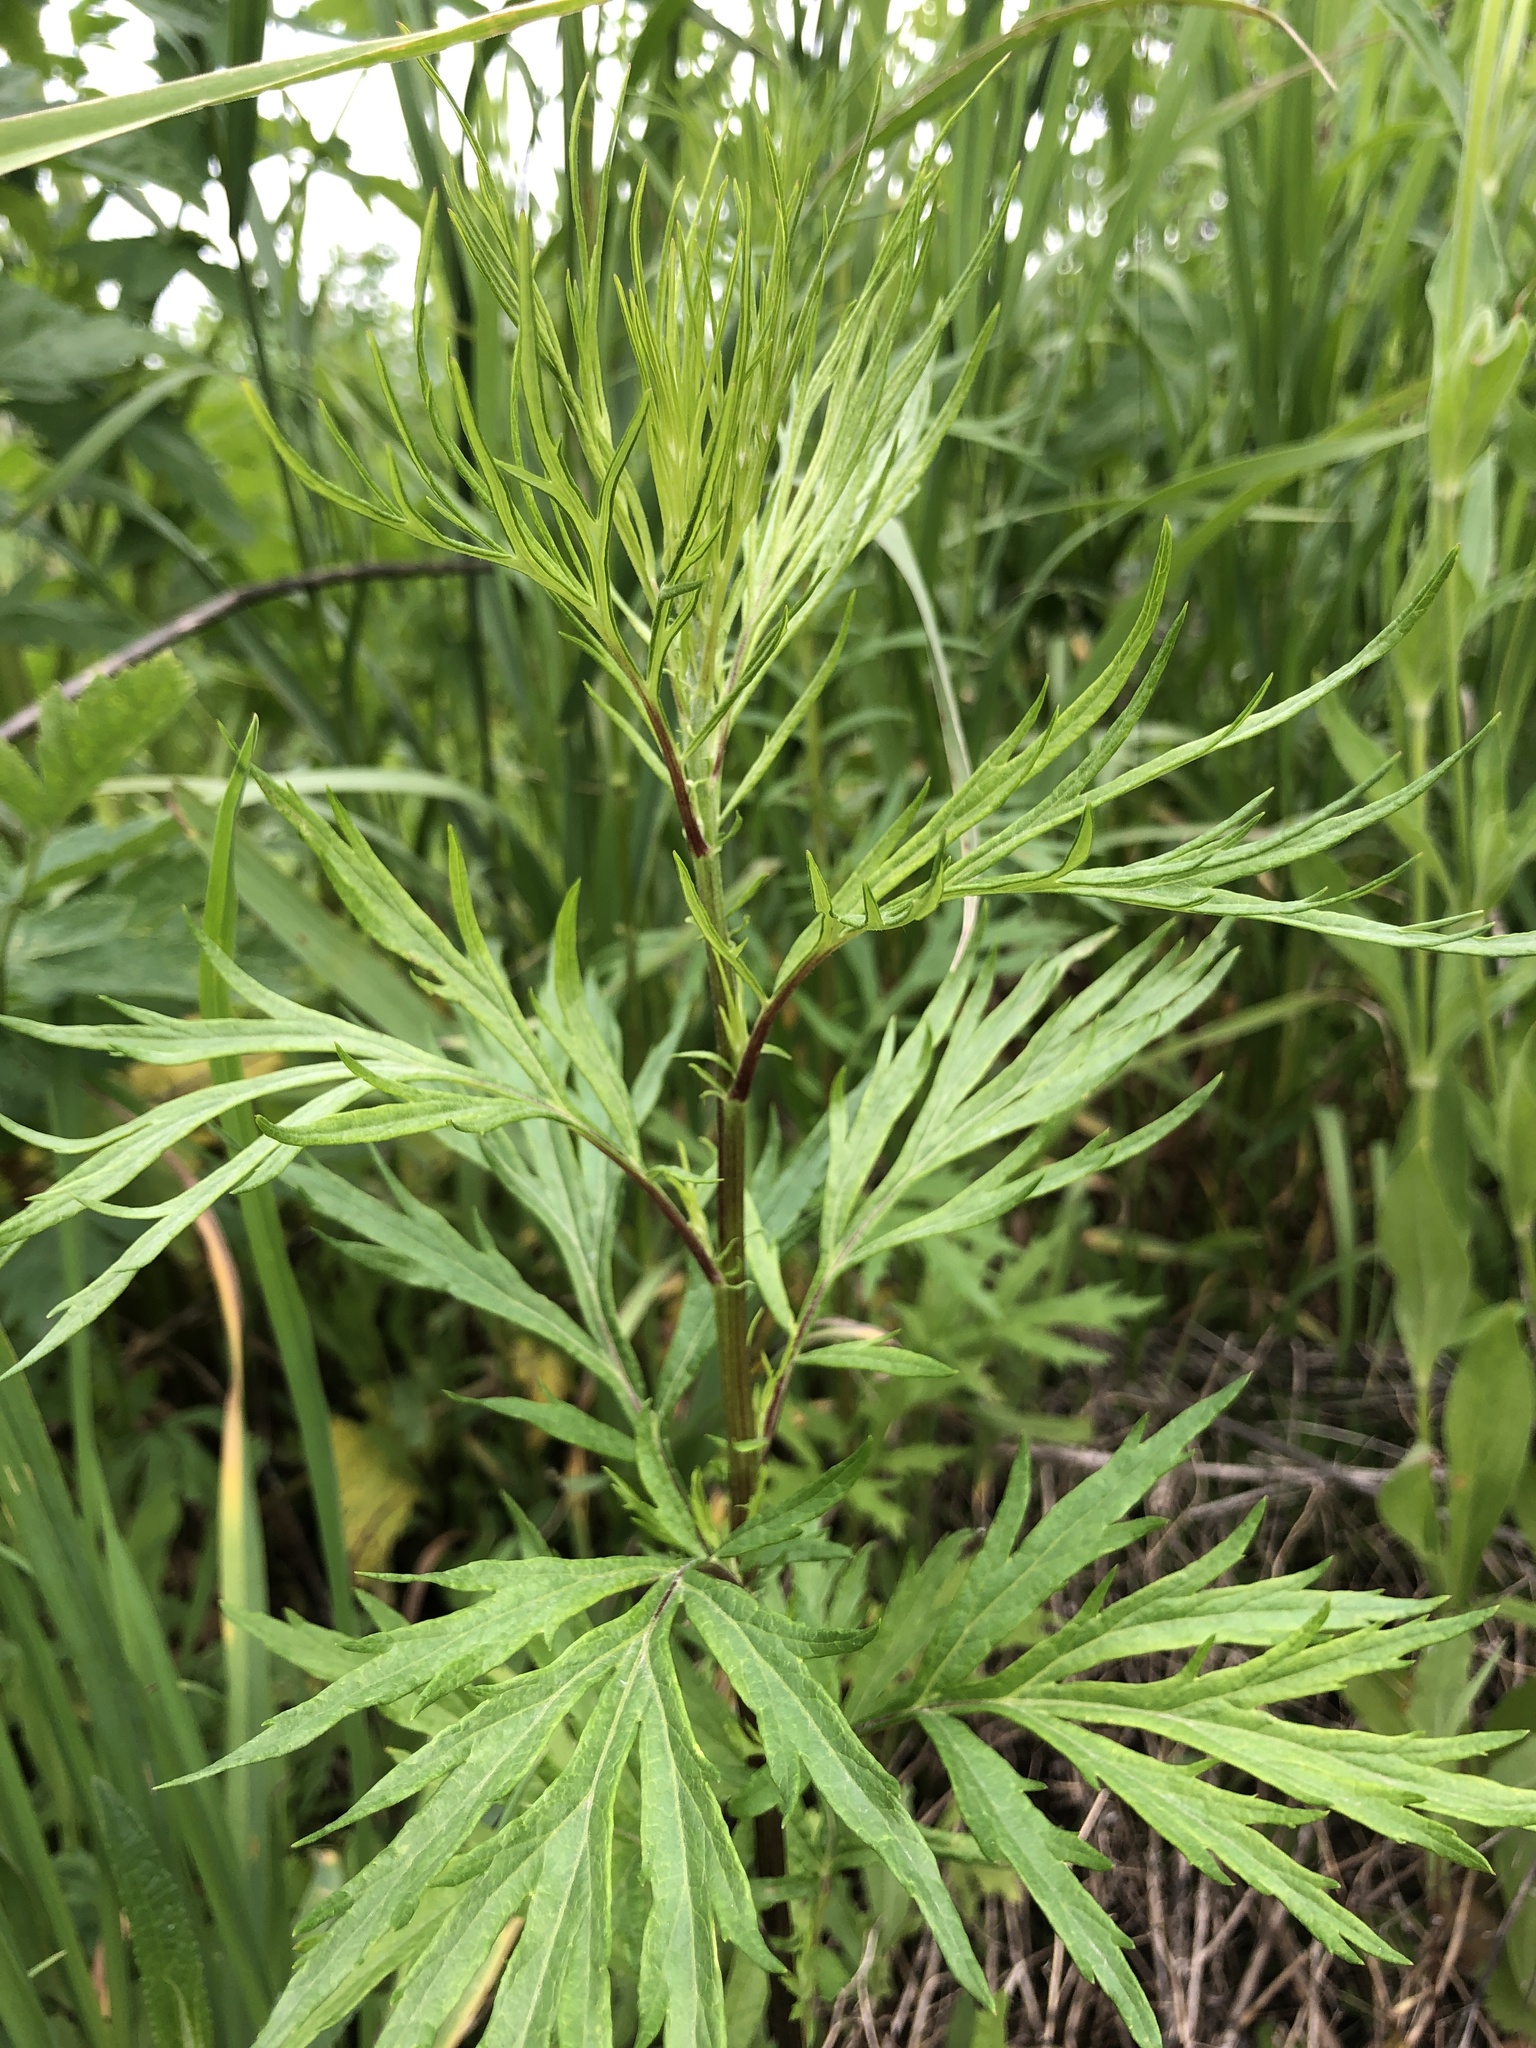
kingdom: Plantae
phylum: Tracheophyta
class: Magnoliopsida
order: Asterales
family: Asteraceae
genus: Artemisia
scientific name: Artemisia vulgaris
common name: Mugwort
